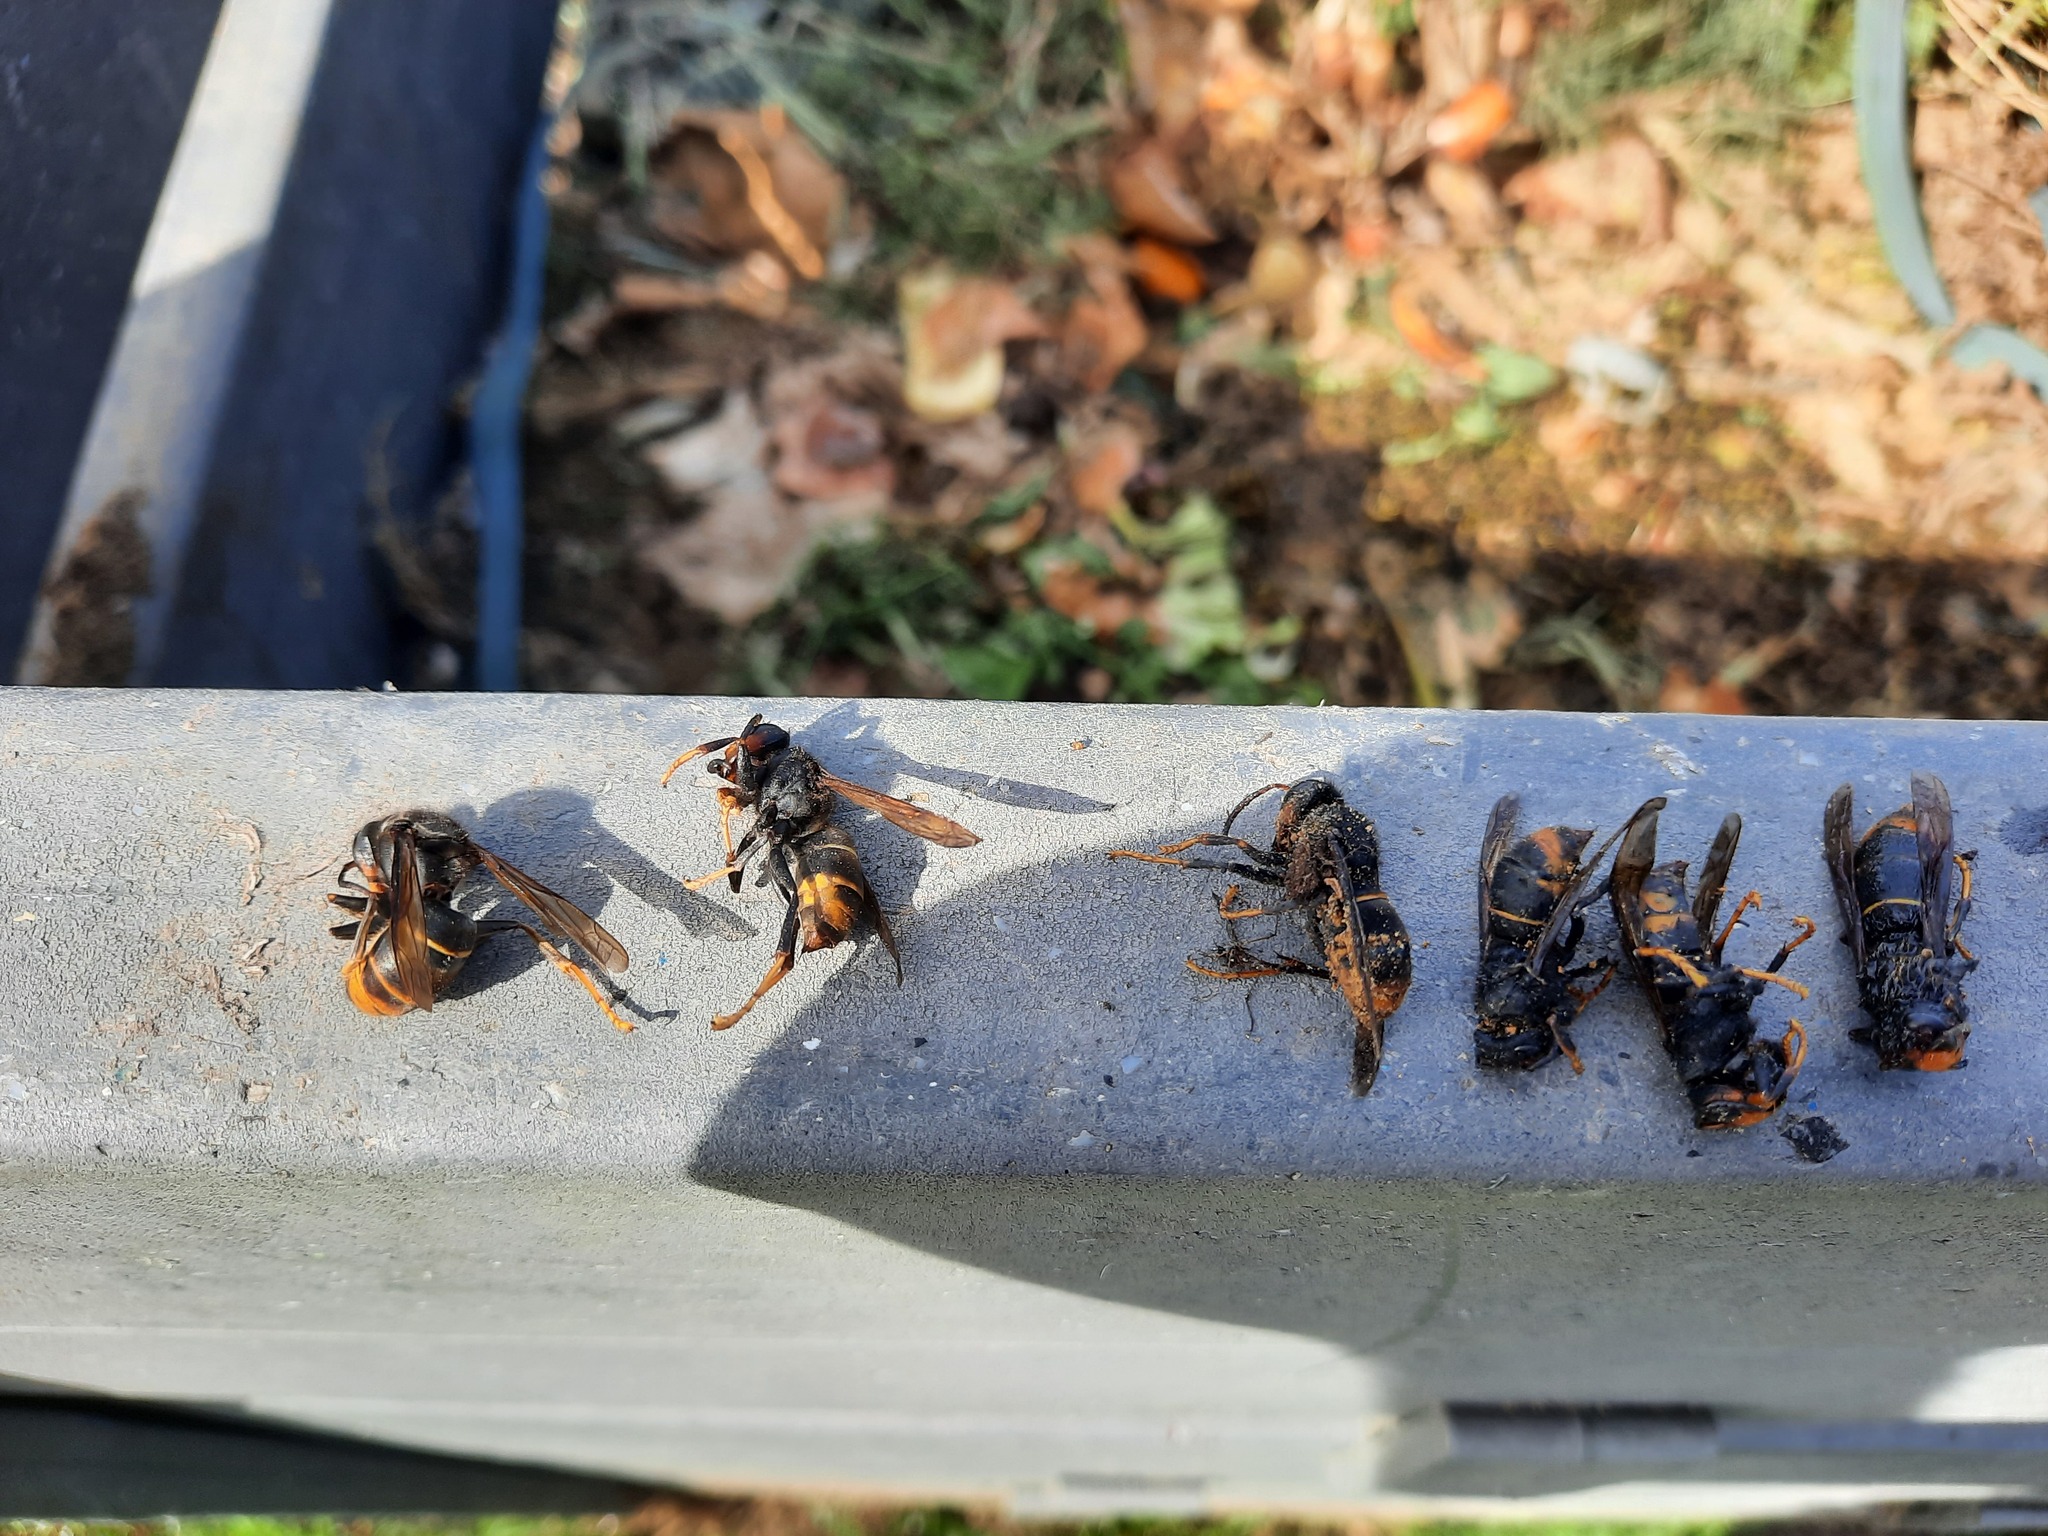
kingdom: Animalia
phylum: Arthropoda
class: Insecta
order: Hymenoptera
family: Vespidae
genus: Vespa
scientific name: Vespa velutina
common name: Asian hornet
